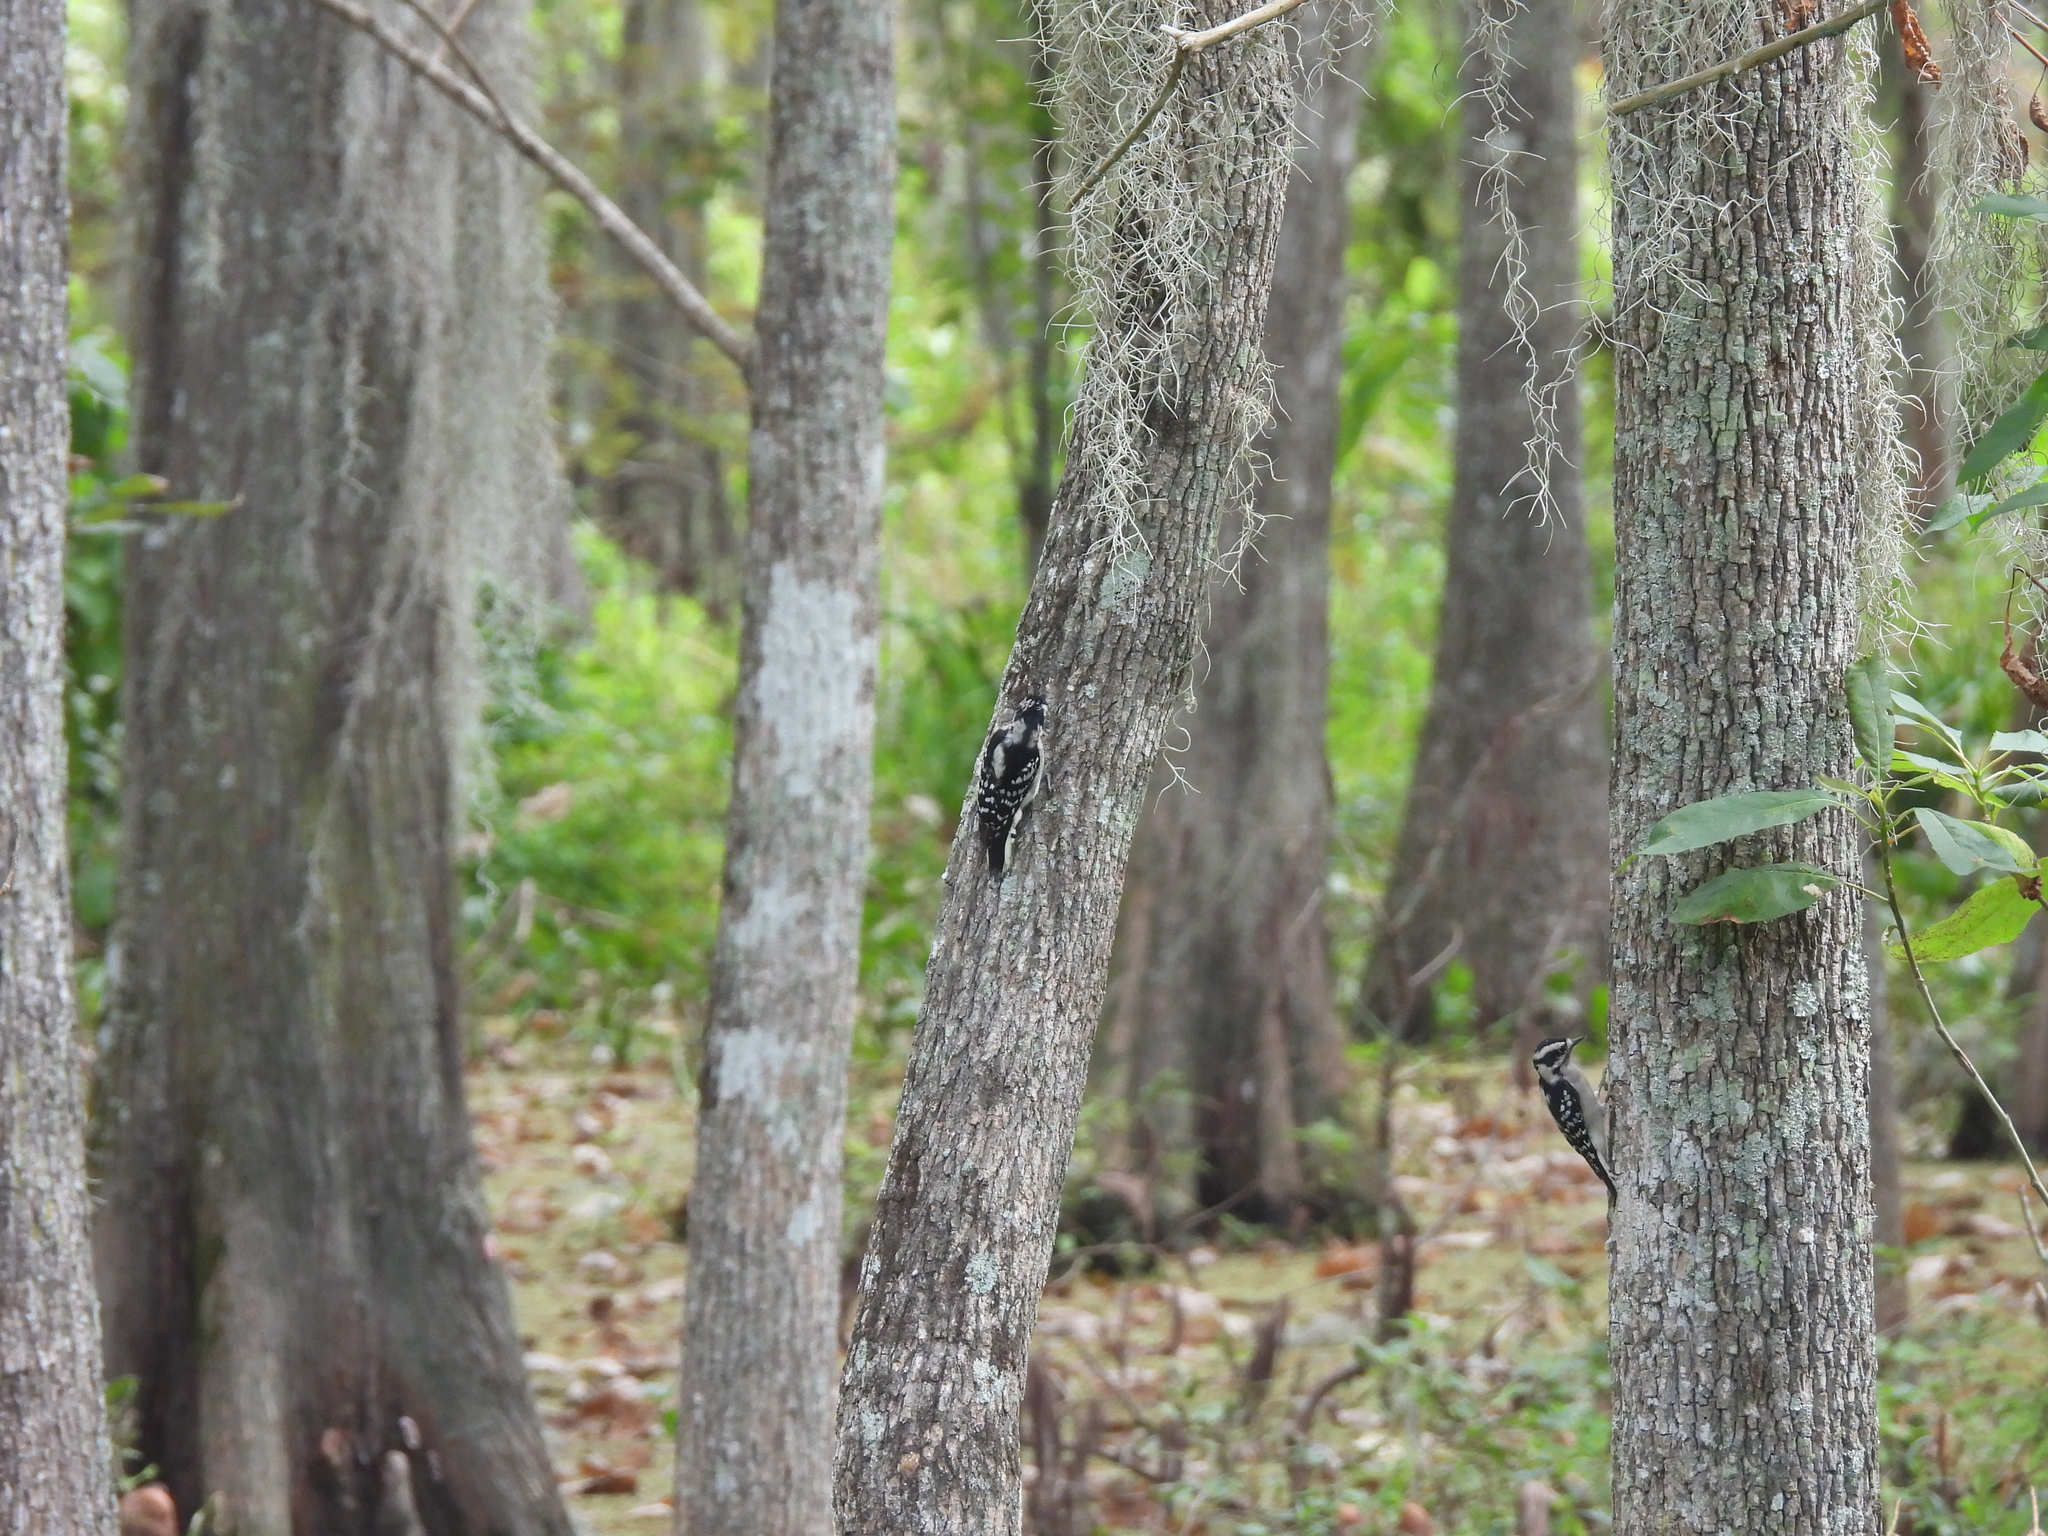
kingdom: Animalia
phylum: Chordata
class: Aves
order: Piciformes
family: Picidae
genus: Dryobates
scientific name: Dryobates pubescens
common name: Downy woodpecker
